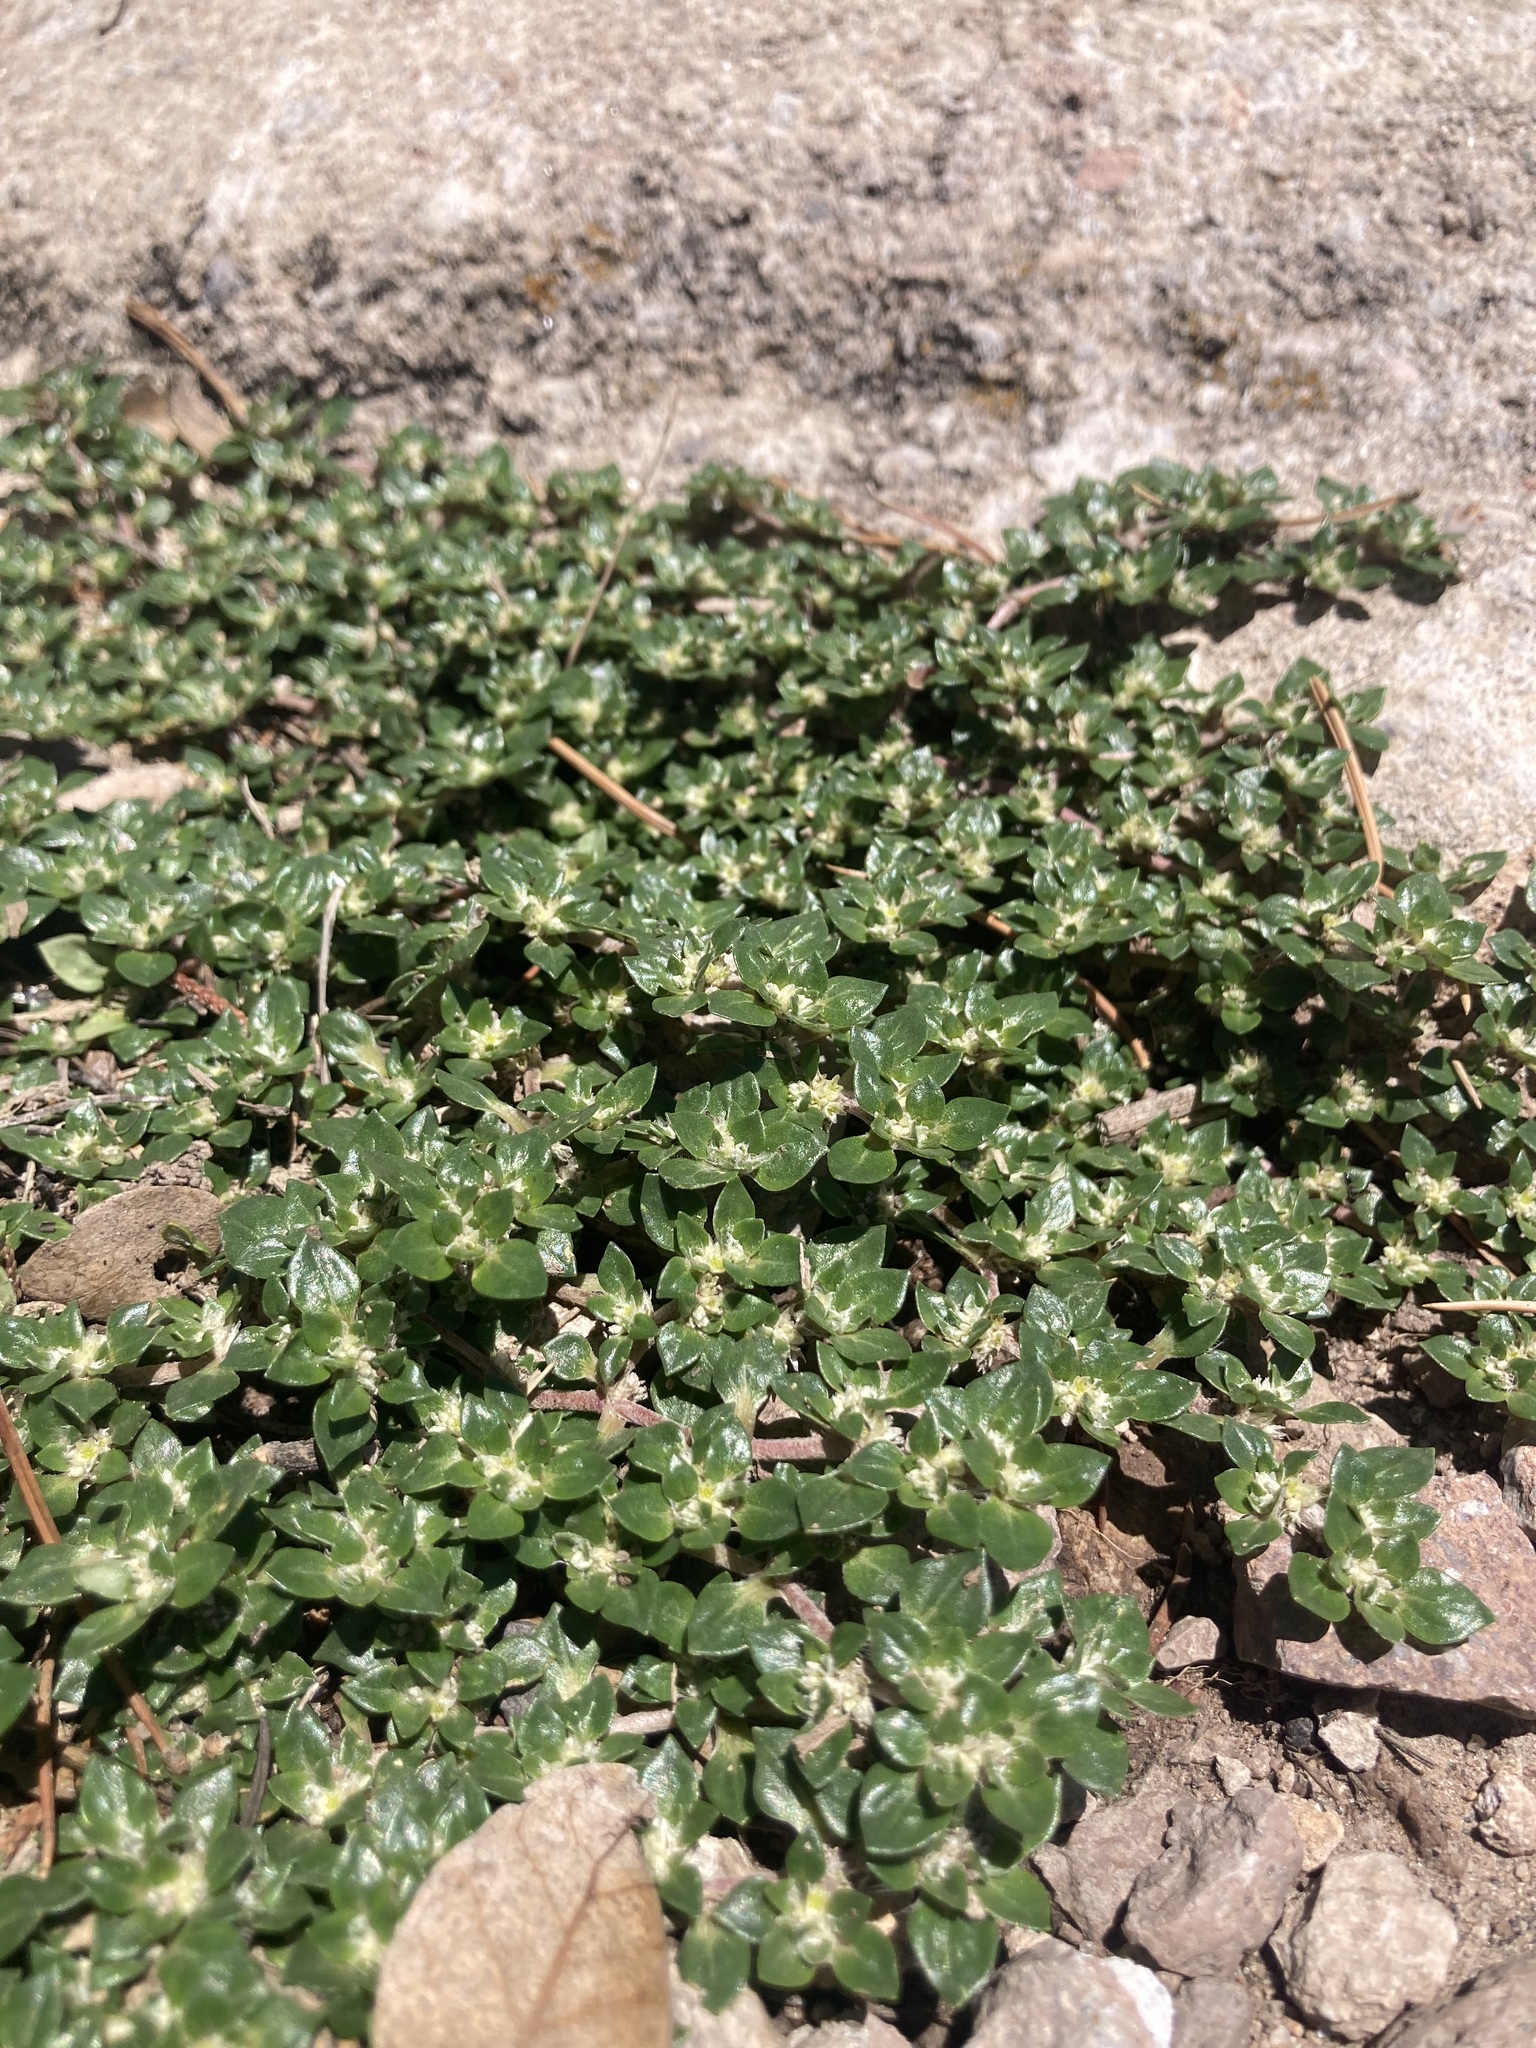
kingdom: Plantae
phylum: Tracheophyta
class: Magnoliopsida
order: Caryophyllales
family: Amaranthaceae
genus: Guilleminea
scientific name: Guilleminea densa
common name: Small matweed
